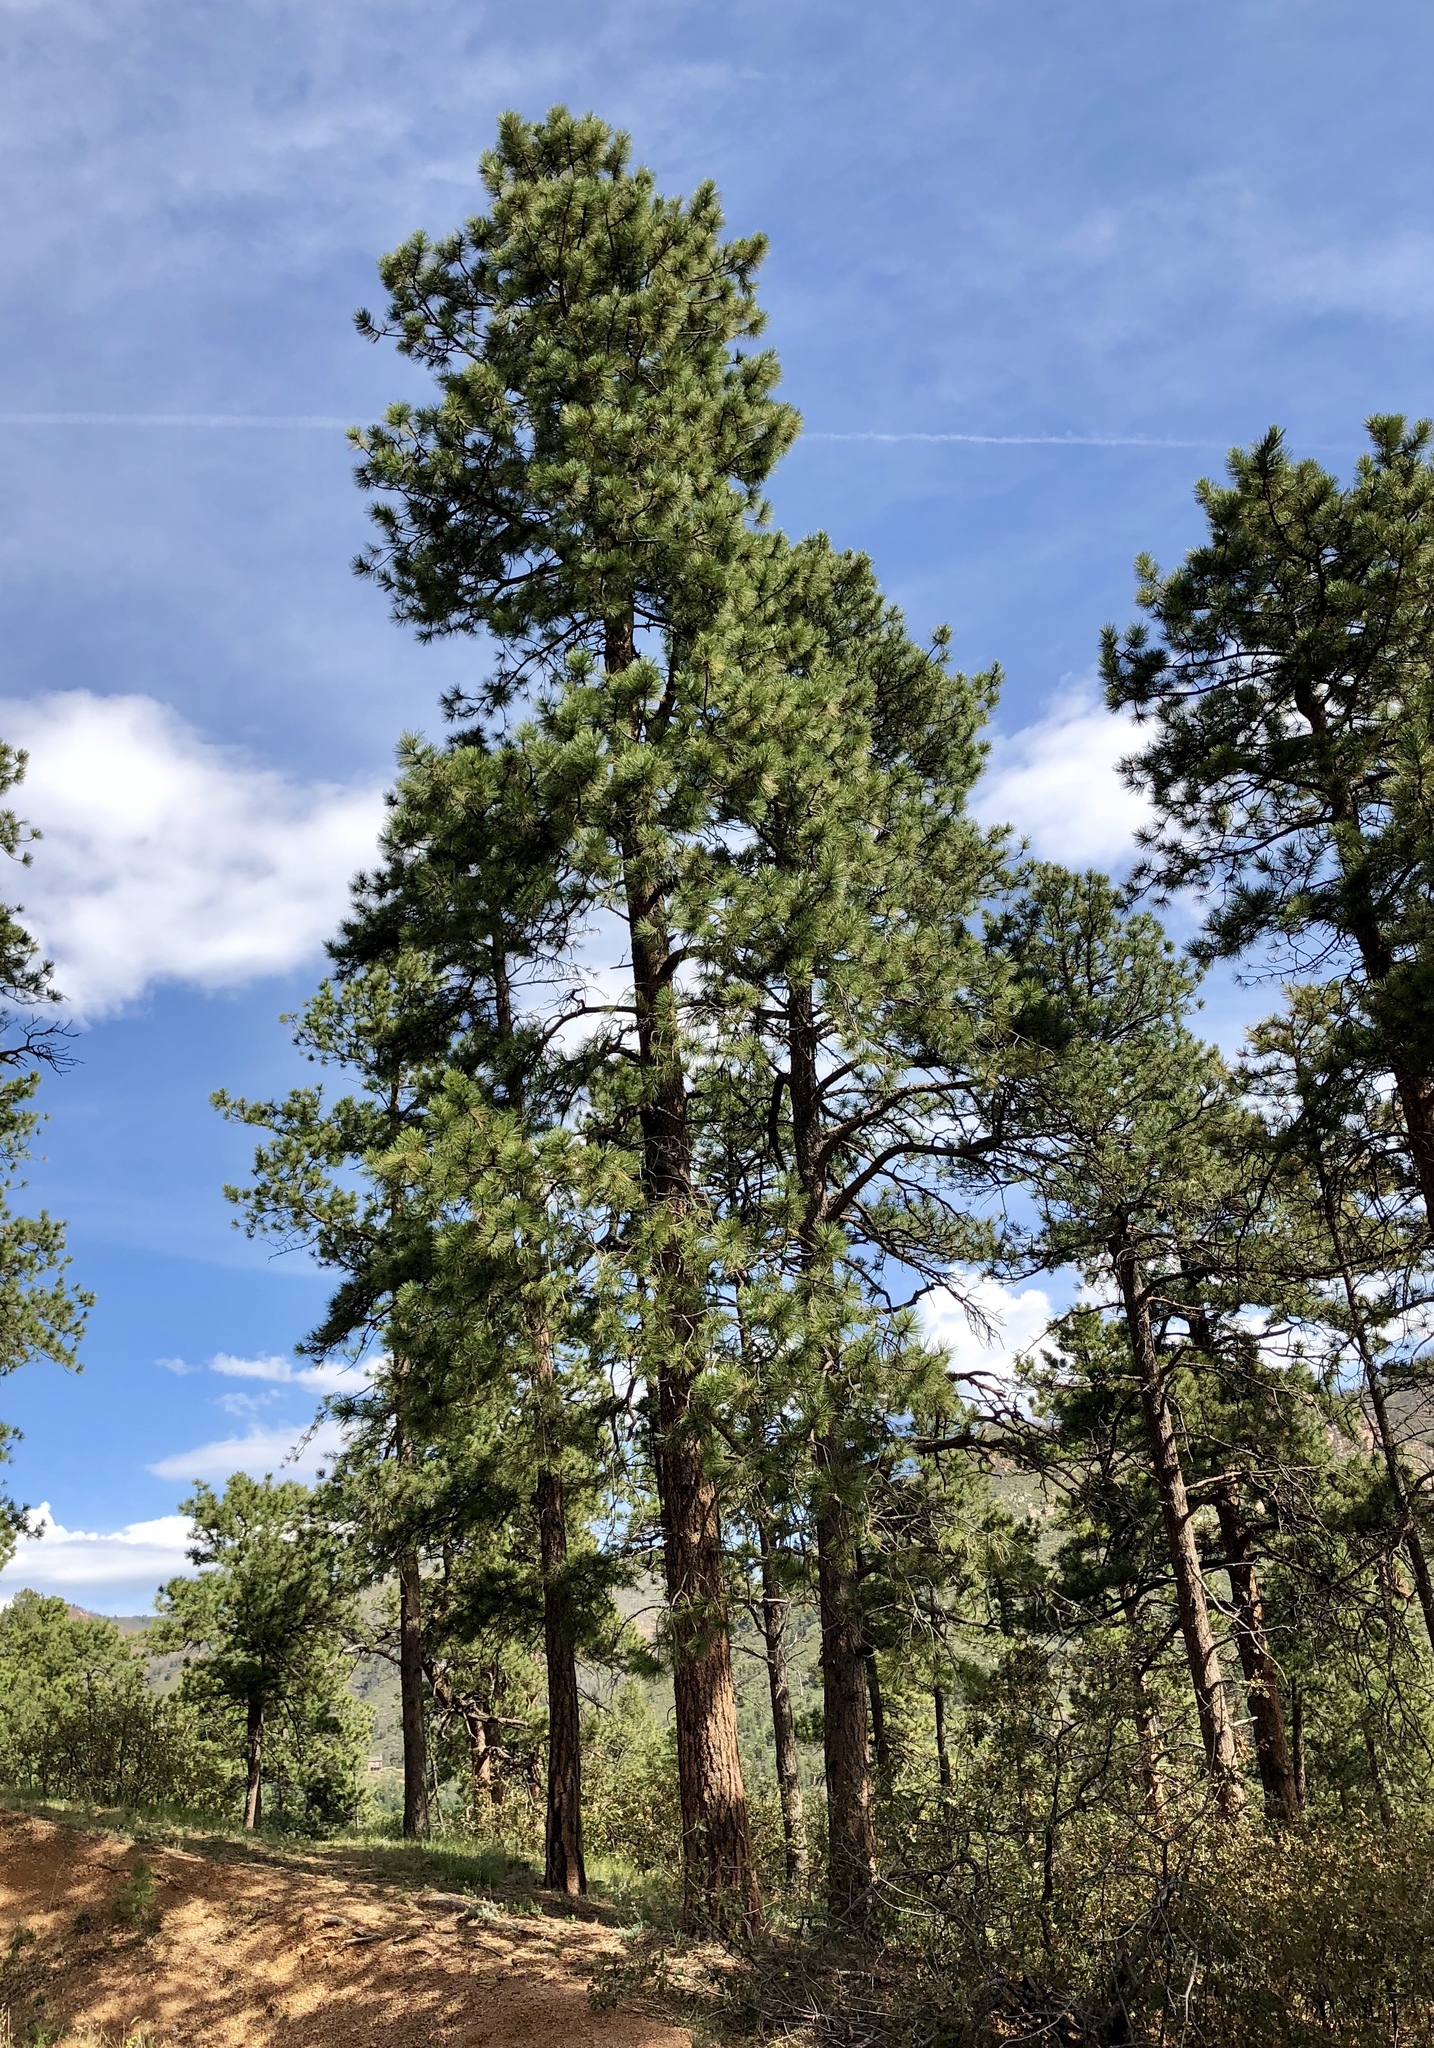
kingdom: Plantae
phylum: Tracheophyta
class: Pinopsida
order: Pinales
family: Pinaceae
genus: Pinus
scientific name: Pinus ponderosa
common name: Western yellow-pine
